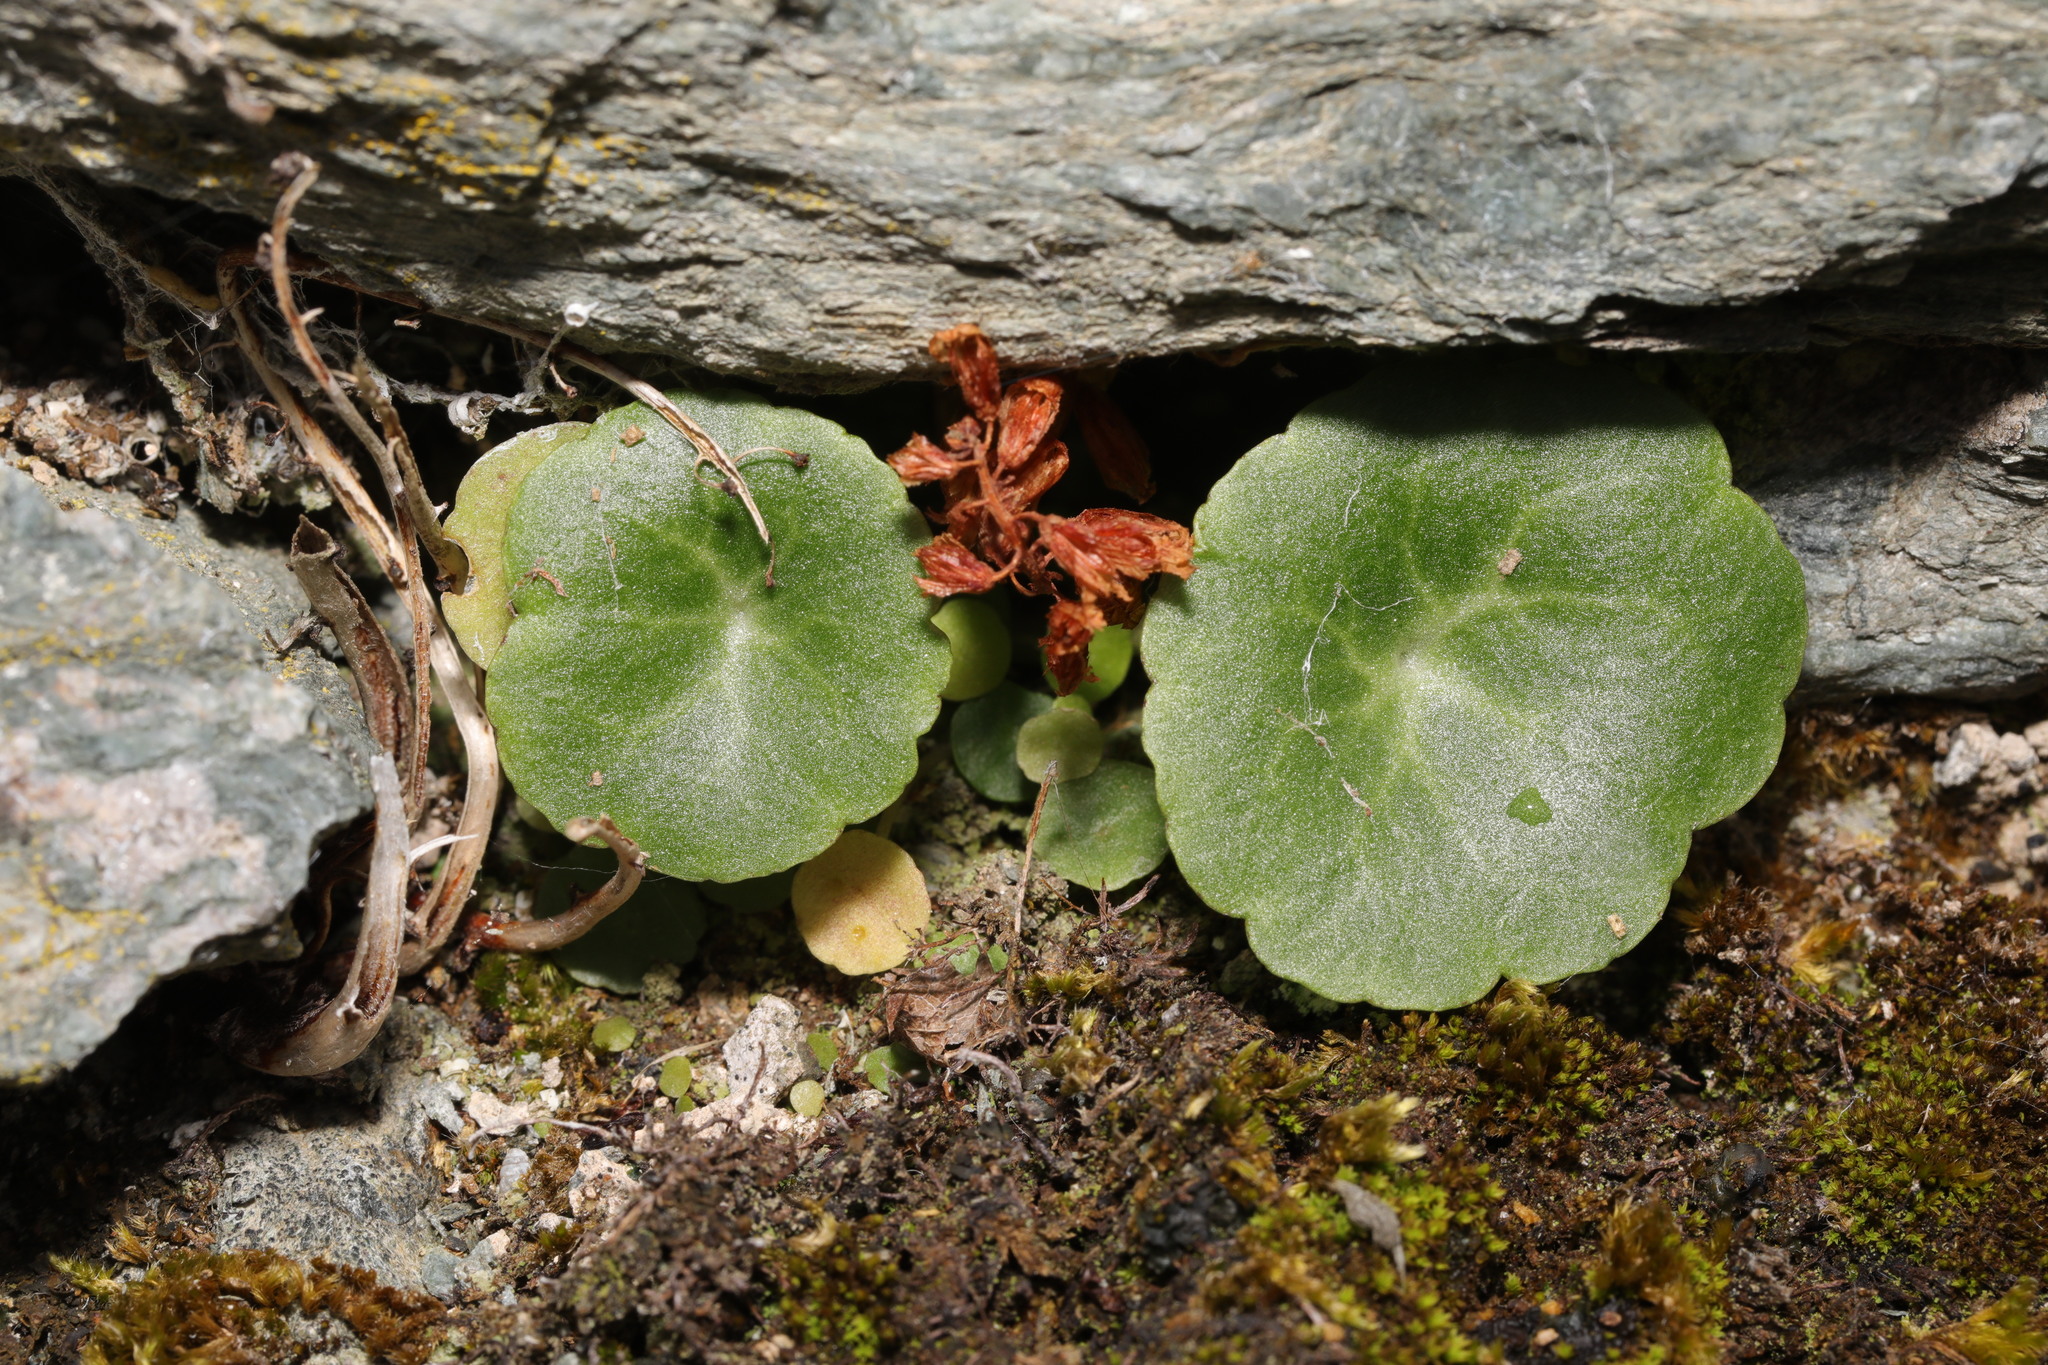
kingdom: Plantae
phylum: Tracheophyta
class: Magnoliopsida
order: Saxifragales
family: Crassulaceae
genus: Umbilicus
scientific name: Umbilicus rupestris
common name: Navelwort
